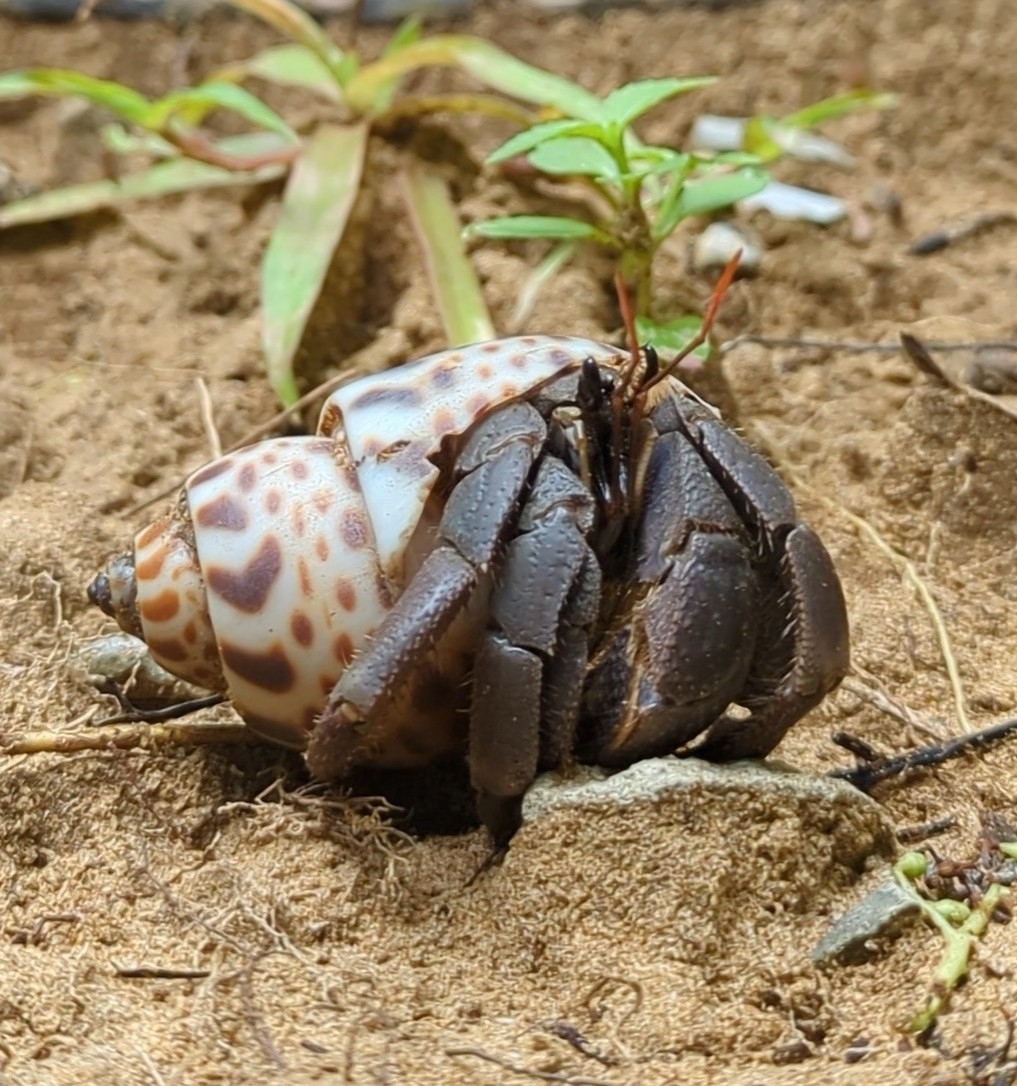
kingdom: Animalia
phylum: Arthropoda
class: Malacostraca
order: Decapoda
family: Coenobitidae
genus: Coenobita
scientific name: Coenobita violascens
